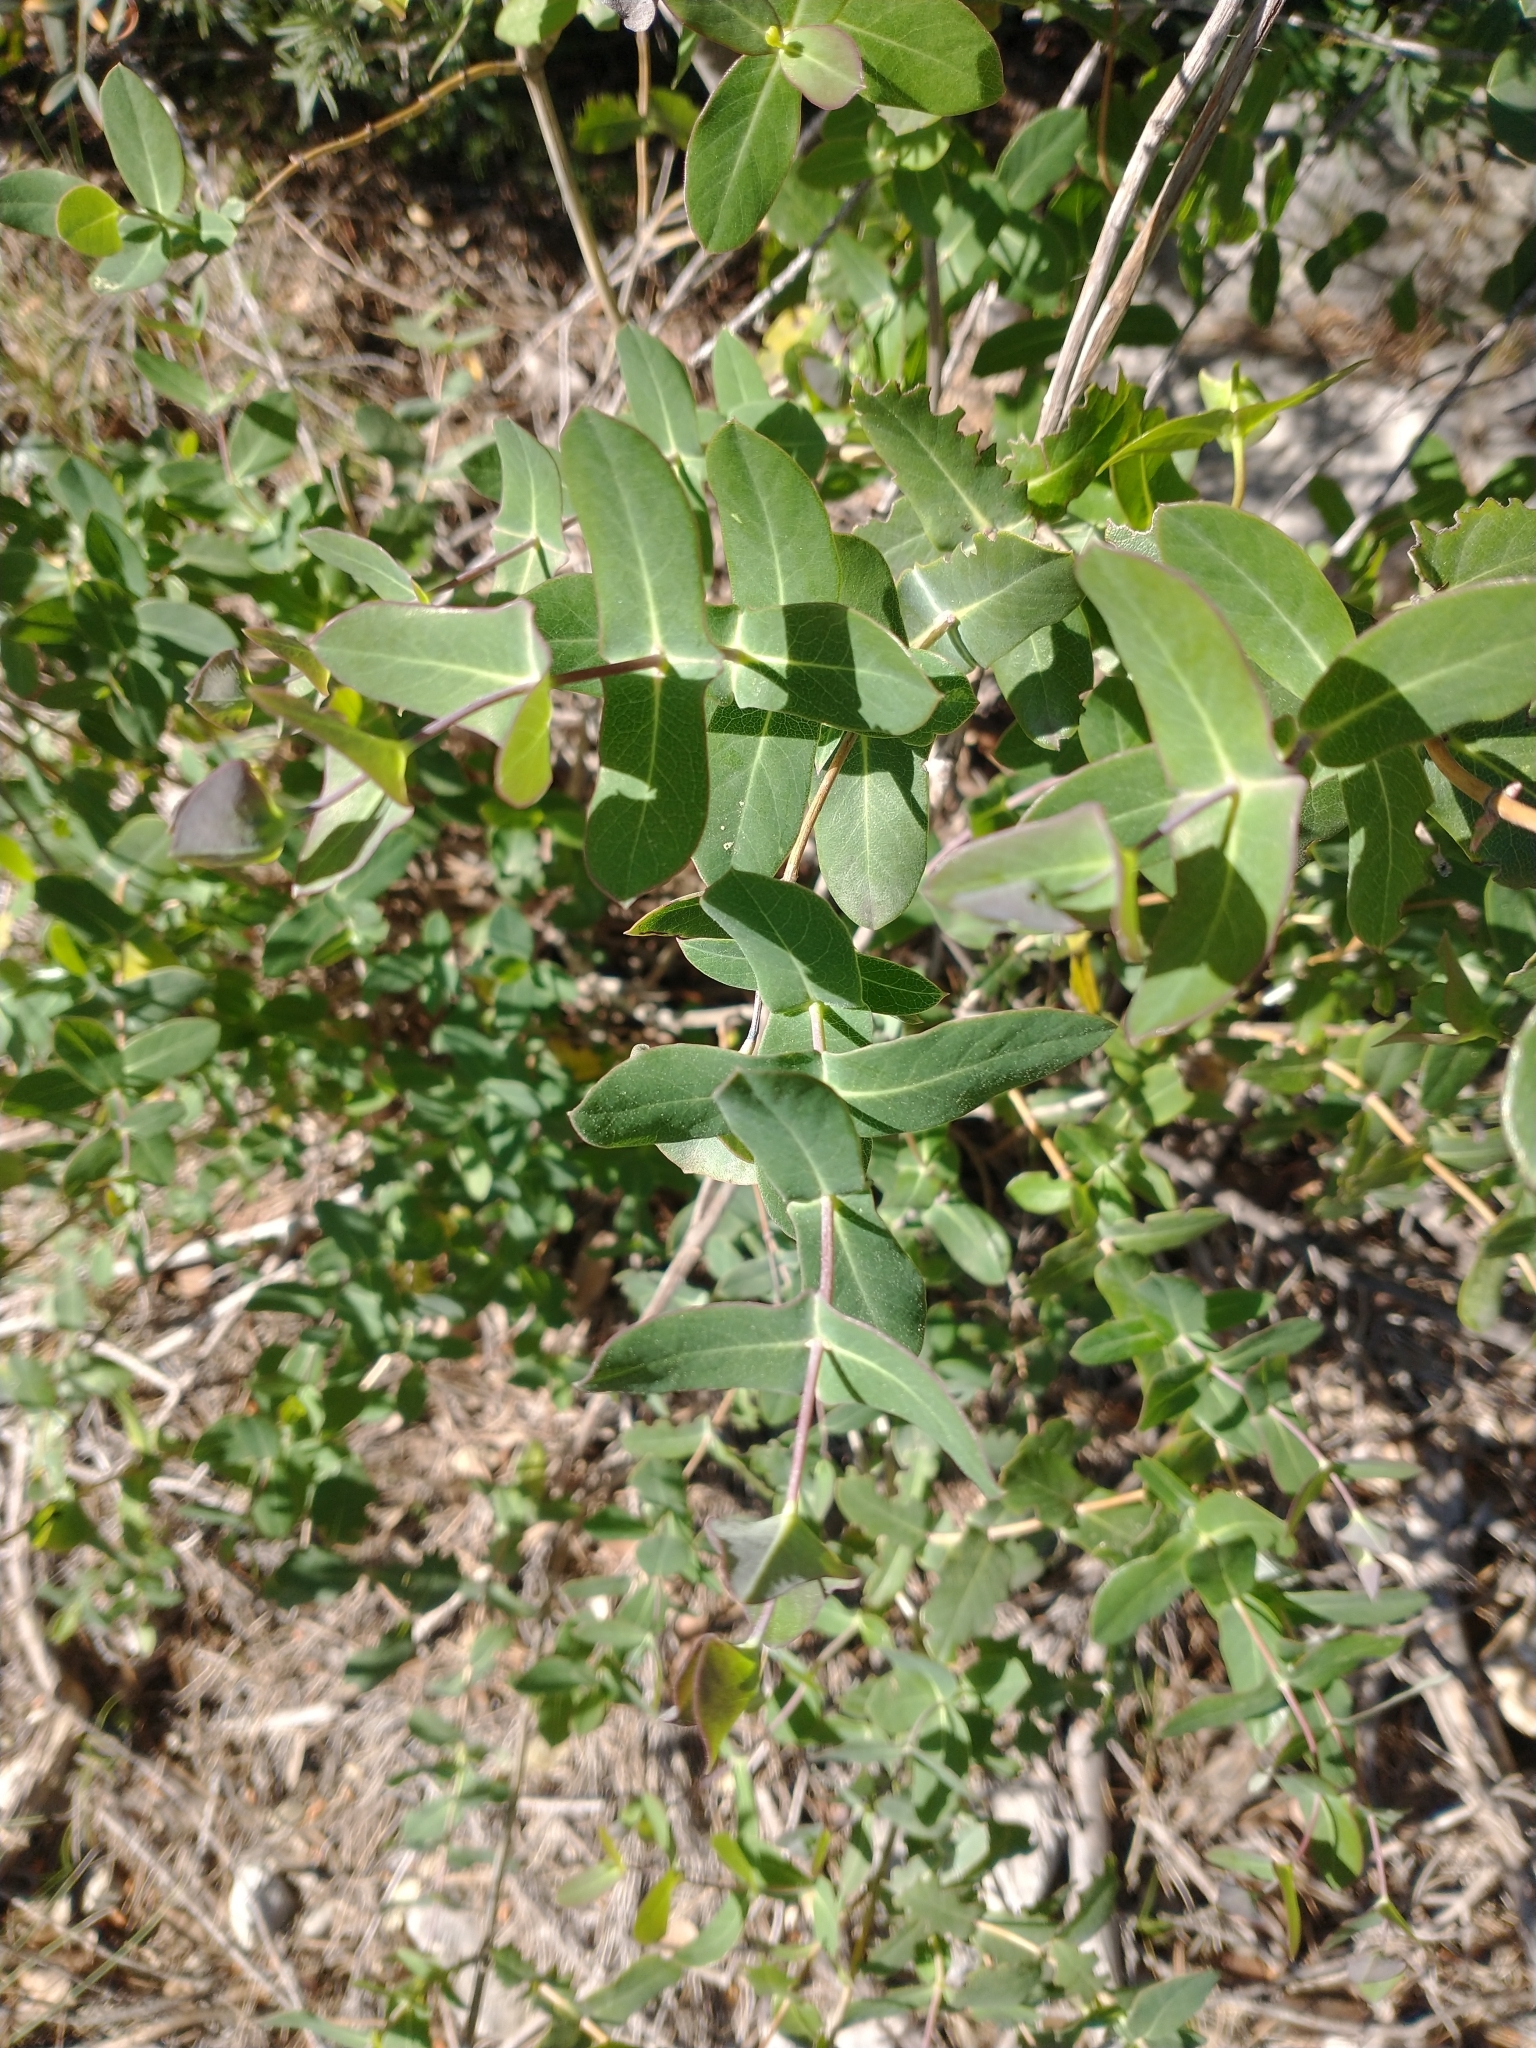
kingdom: Plantae
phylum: Tracheophyta
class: Magnoliopsida
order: Dipsacales
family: Caprifoliaceae
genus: Lonicera
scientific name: Lonicera implexa
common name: Minorca honeysuckle
